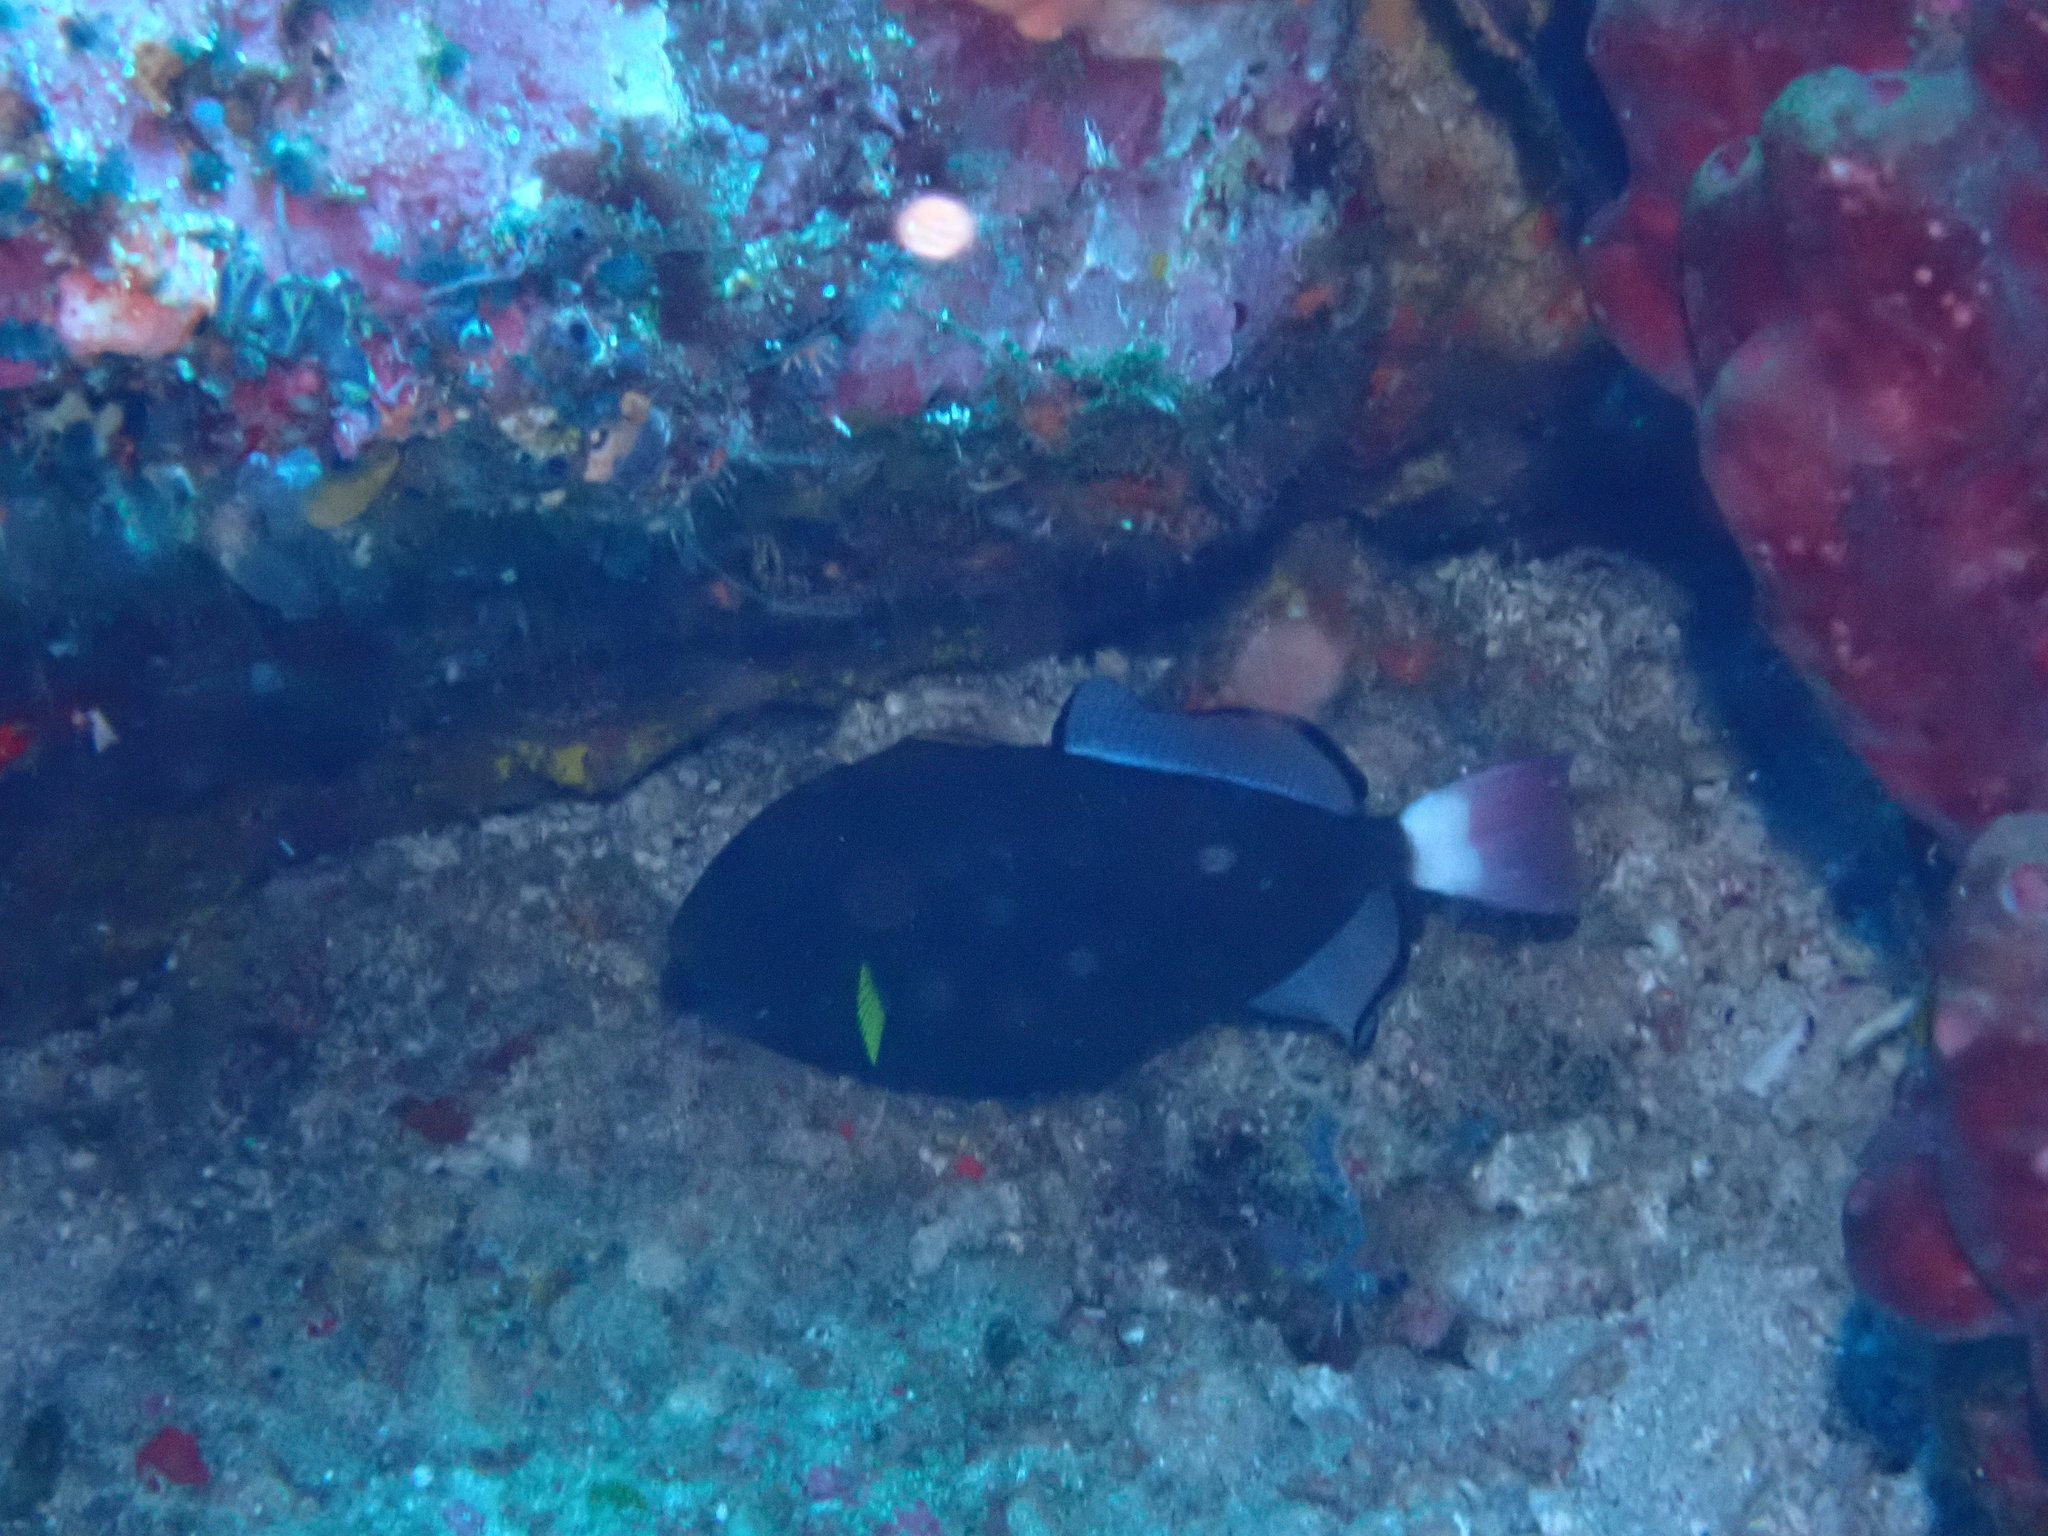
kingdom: Animalia
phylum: Chordata
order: Tetraodontiformes
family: Balistidae
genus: Melichthys
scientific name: Melichthys vidua
